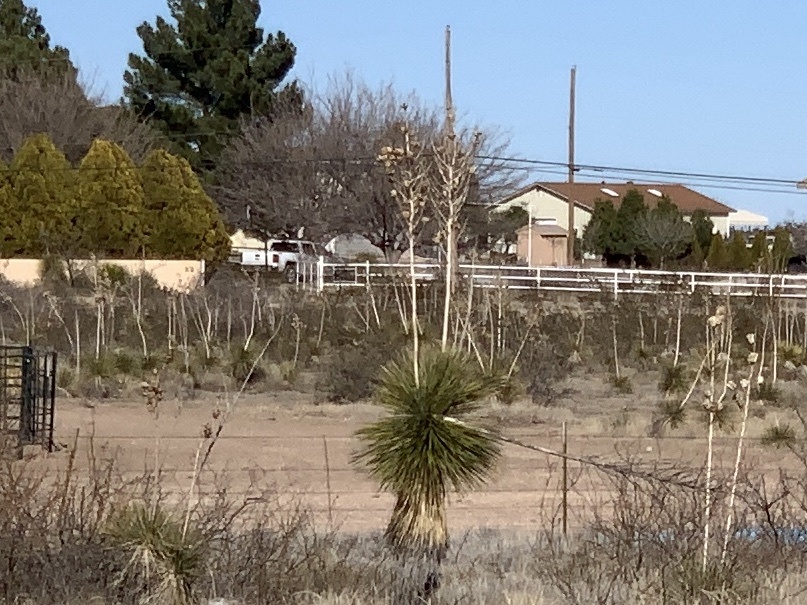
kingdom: Plantae
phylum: Tracheophyta
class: Liliopsida
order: Asparagales
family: Asparagaceae
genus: Yucca
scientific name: Yucca elata
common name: Palmella
